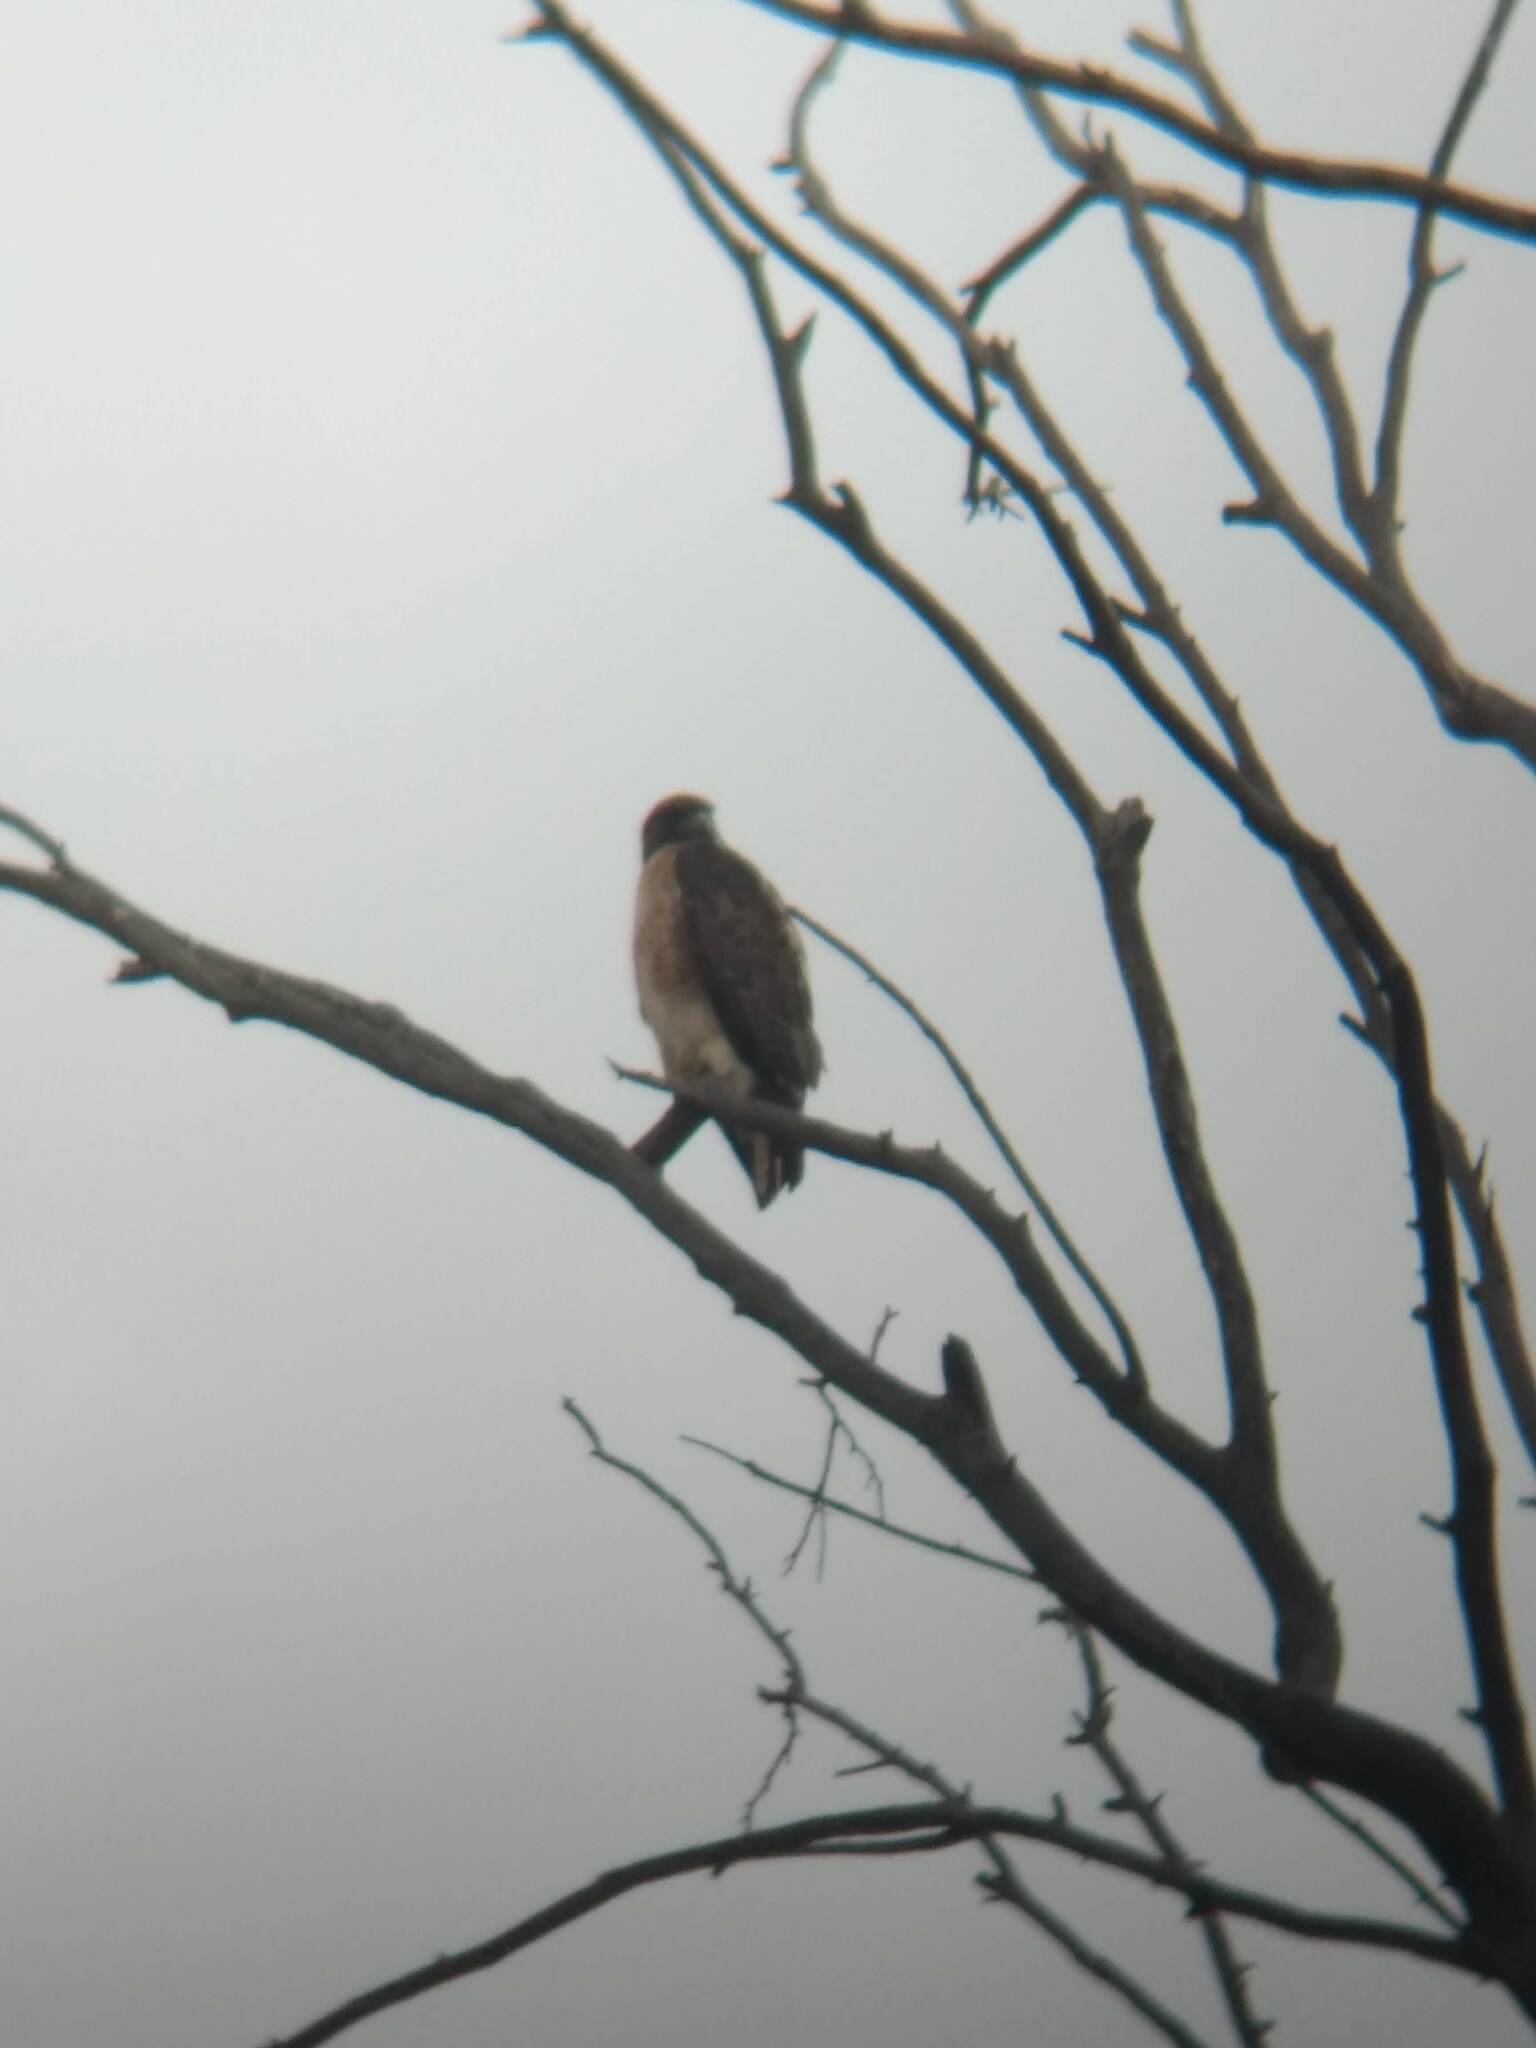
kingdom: Animalia
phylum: Chordata
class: Aves
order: Accipitriformes
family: Accipitridae
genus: Buteo
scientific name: Buteo jamaicensis
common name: Red-tailed hawk
